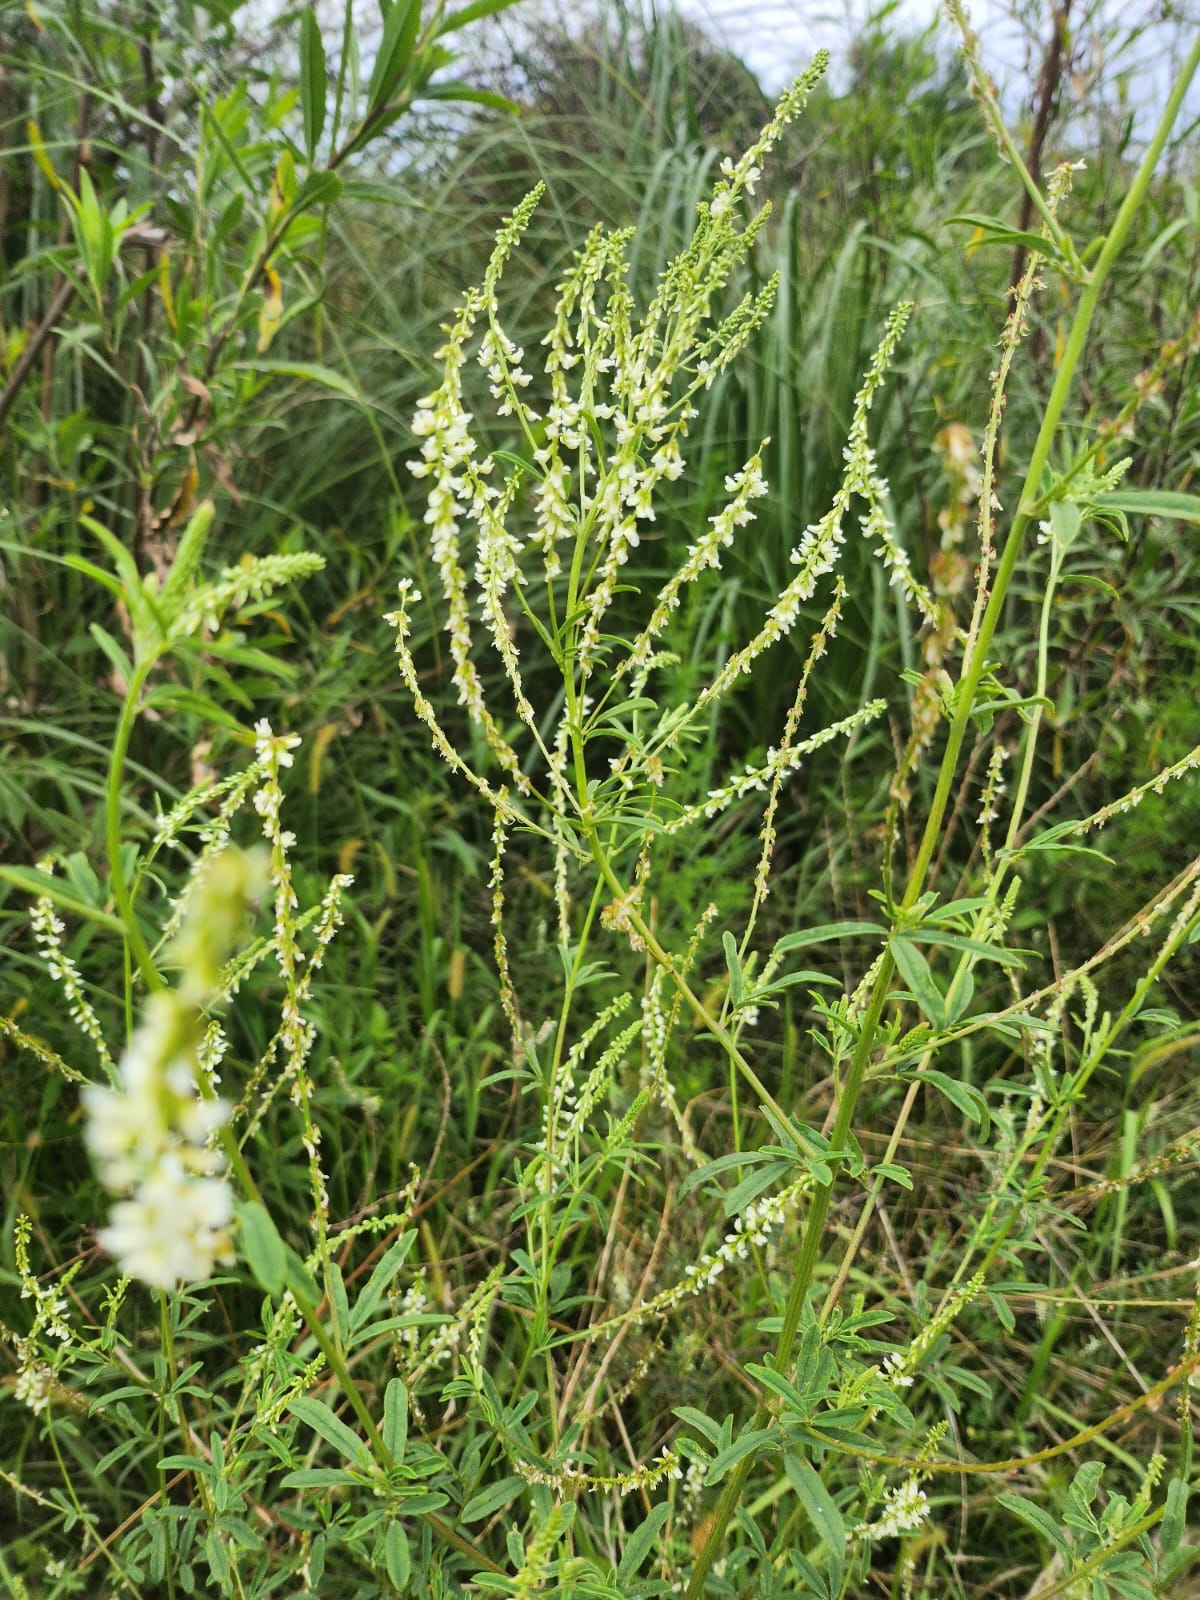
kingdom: Plantae
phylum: Tracheophyta
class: Magnoliopsida
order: Fabales
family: Fabaceae
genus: Melilotus
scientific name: Melilotus albus
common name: White melilot
